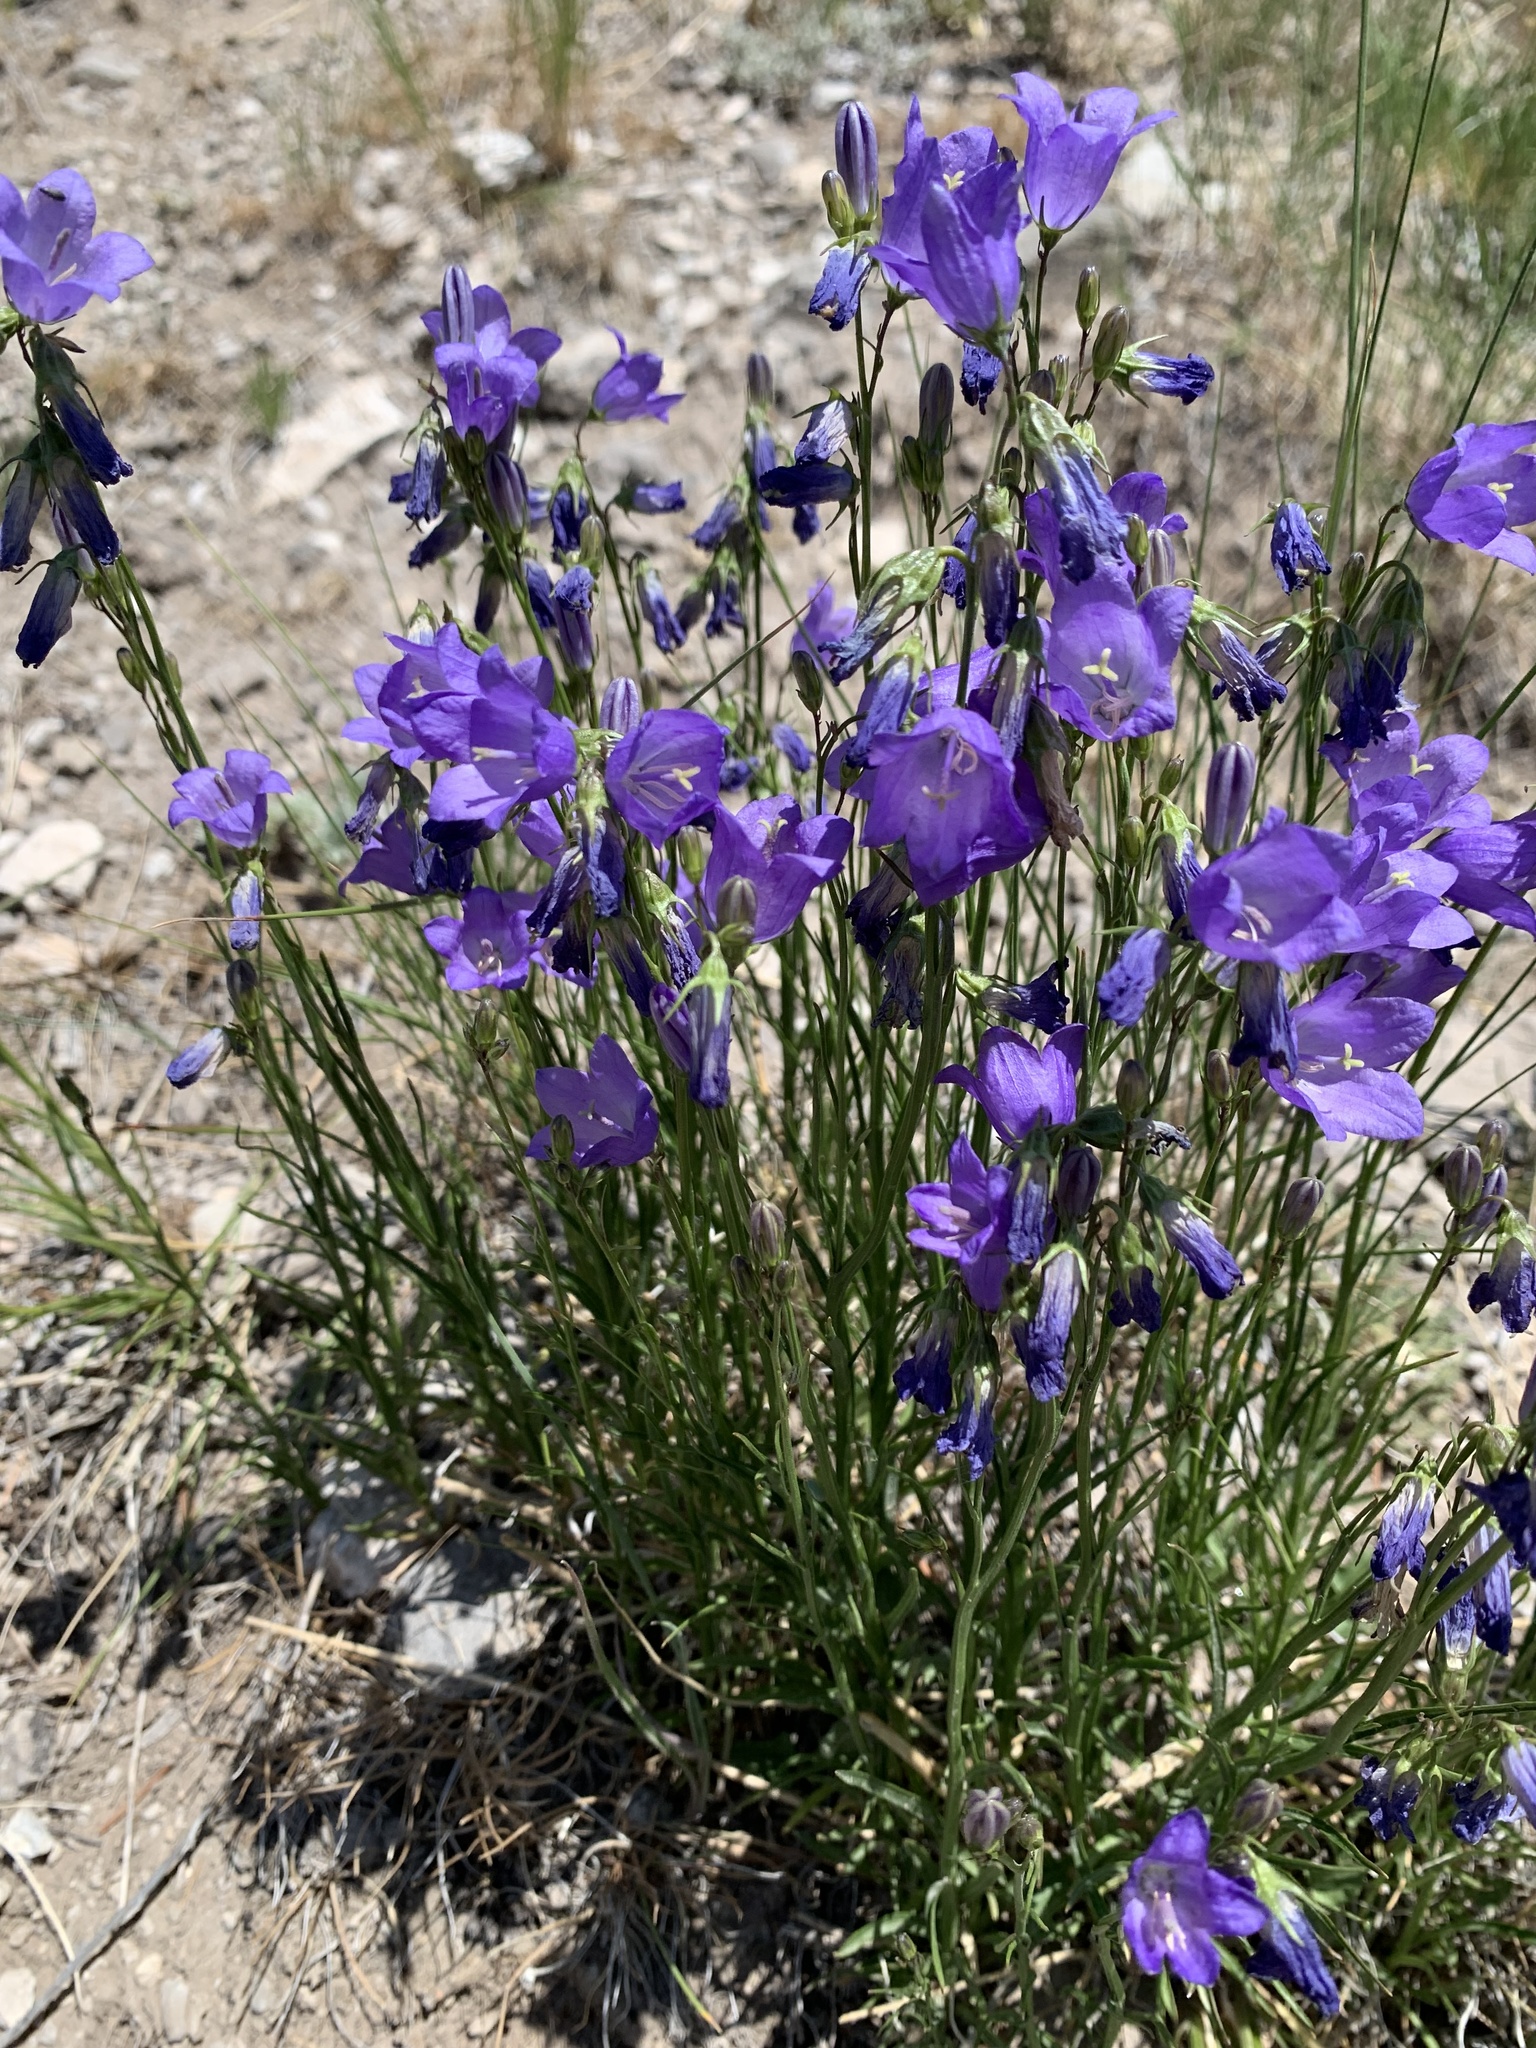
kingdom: Plantae
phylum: Tracheophyta
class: Magnoliopsida
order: Asterales
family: Campanulaceae
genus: Campanula
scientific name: Campanula petiolata
